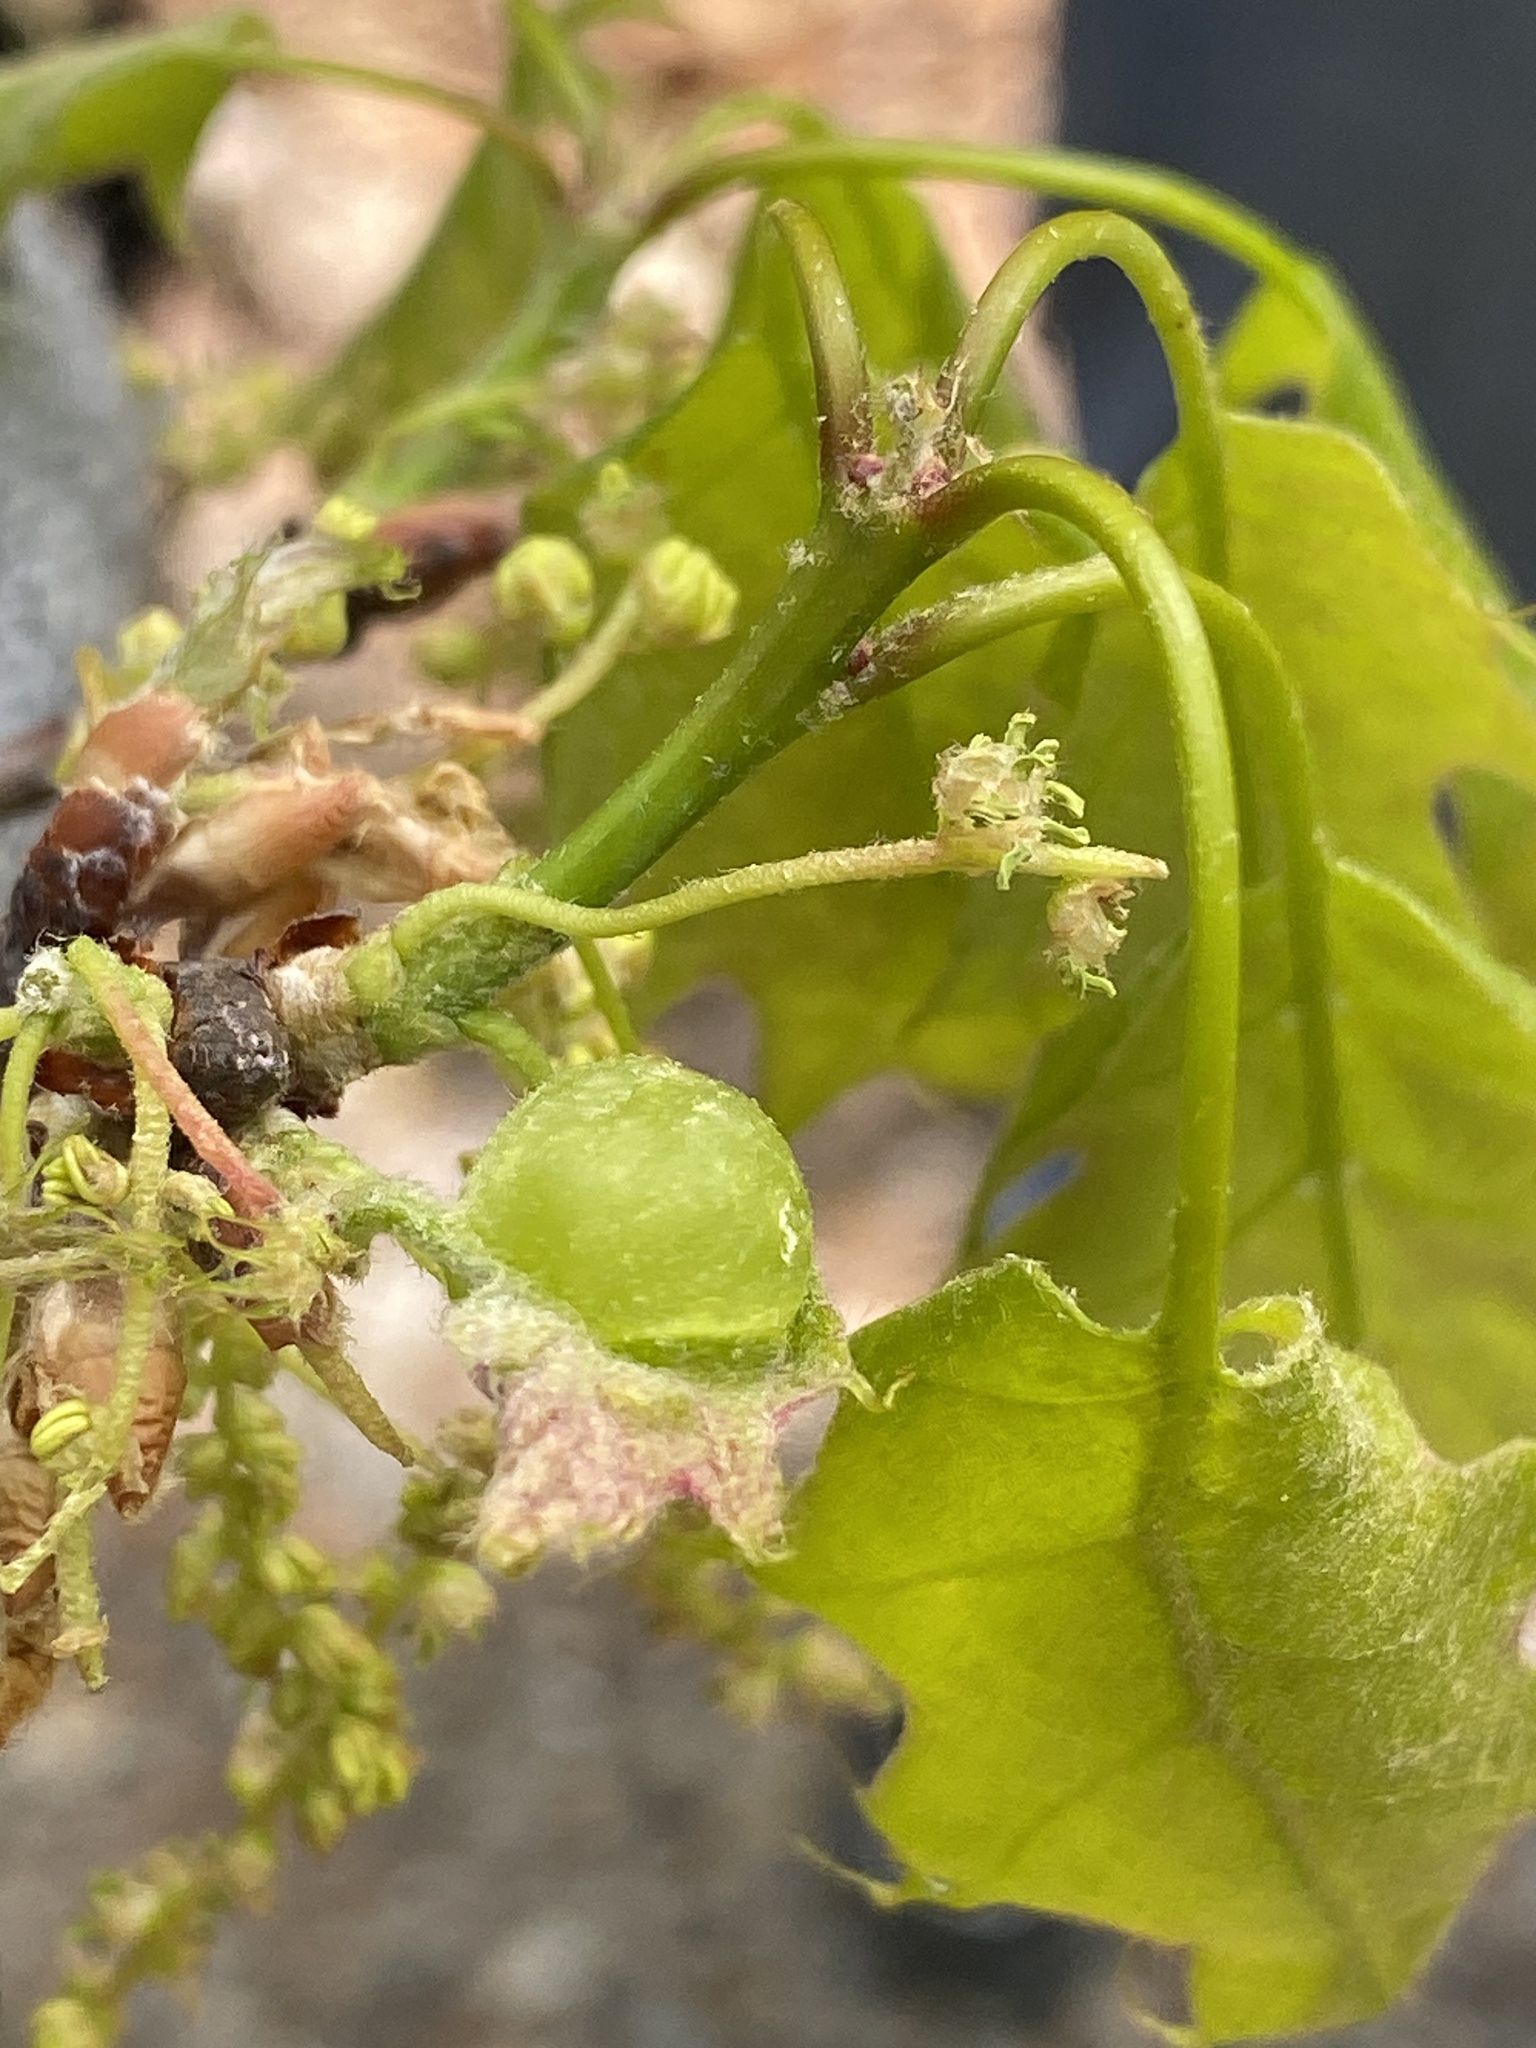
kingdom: Animalia
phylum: Arthropoda
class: Insecta
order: Hymenoptera
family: Cynipidae
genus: Dryocosmus
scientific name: Dryocosmus quercuspalustris
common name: Succulent oak gall wasp
